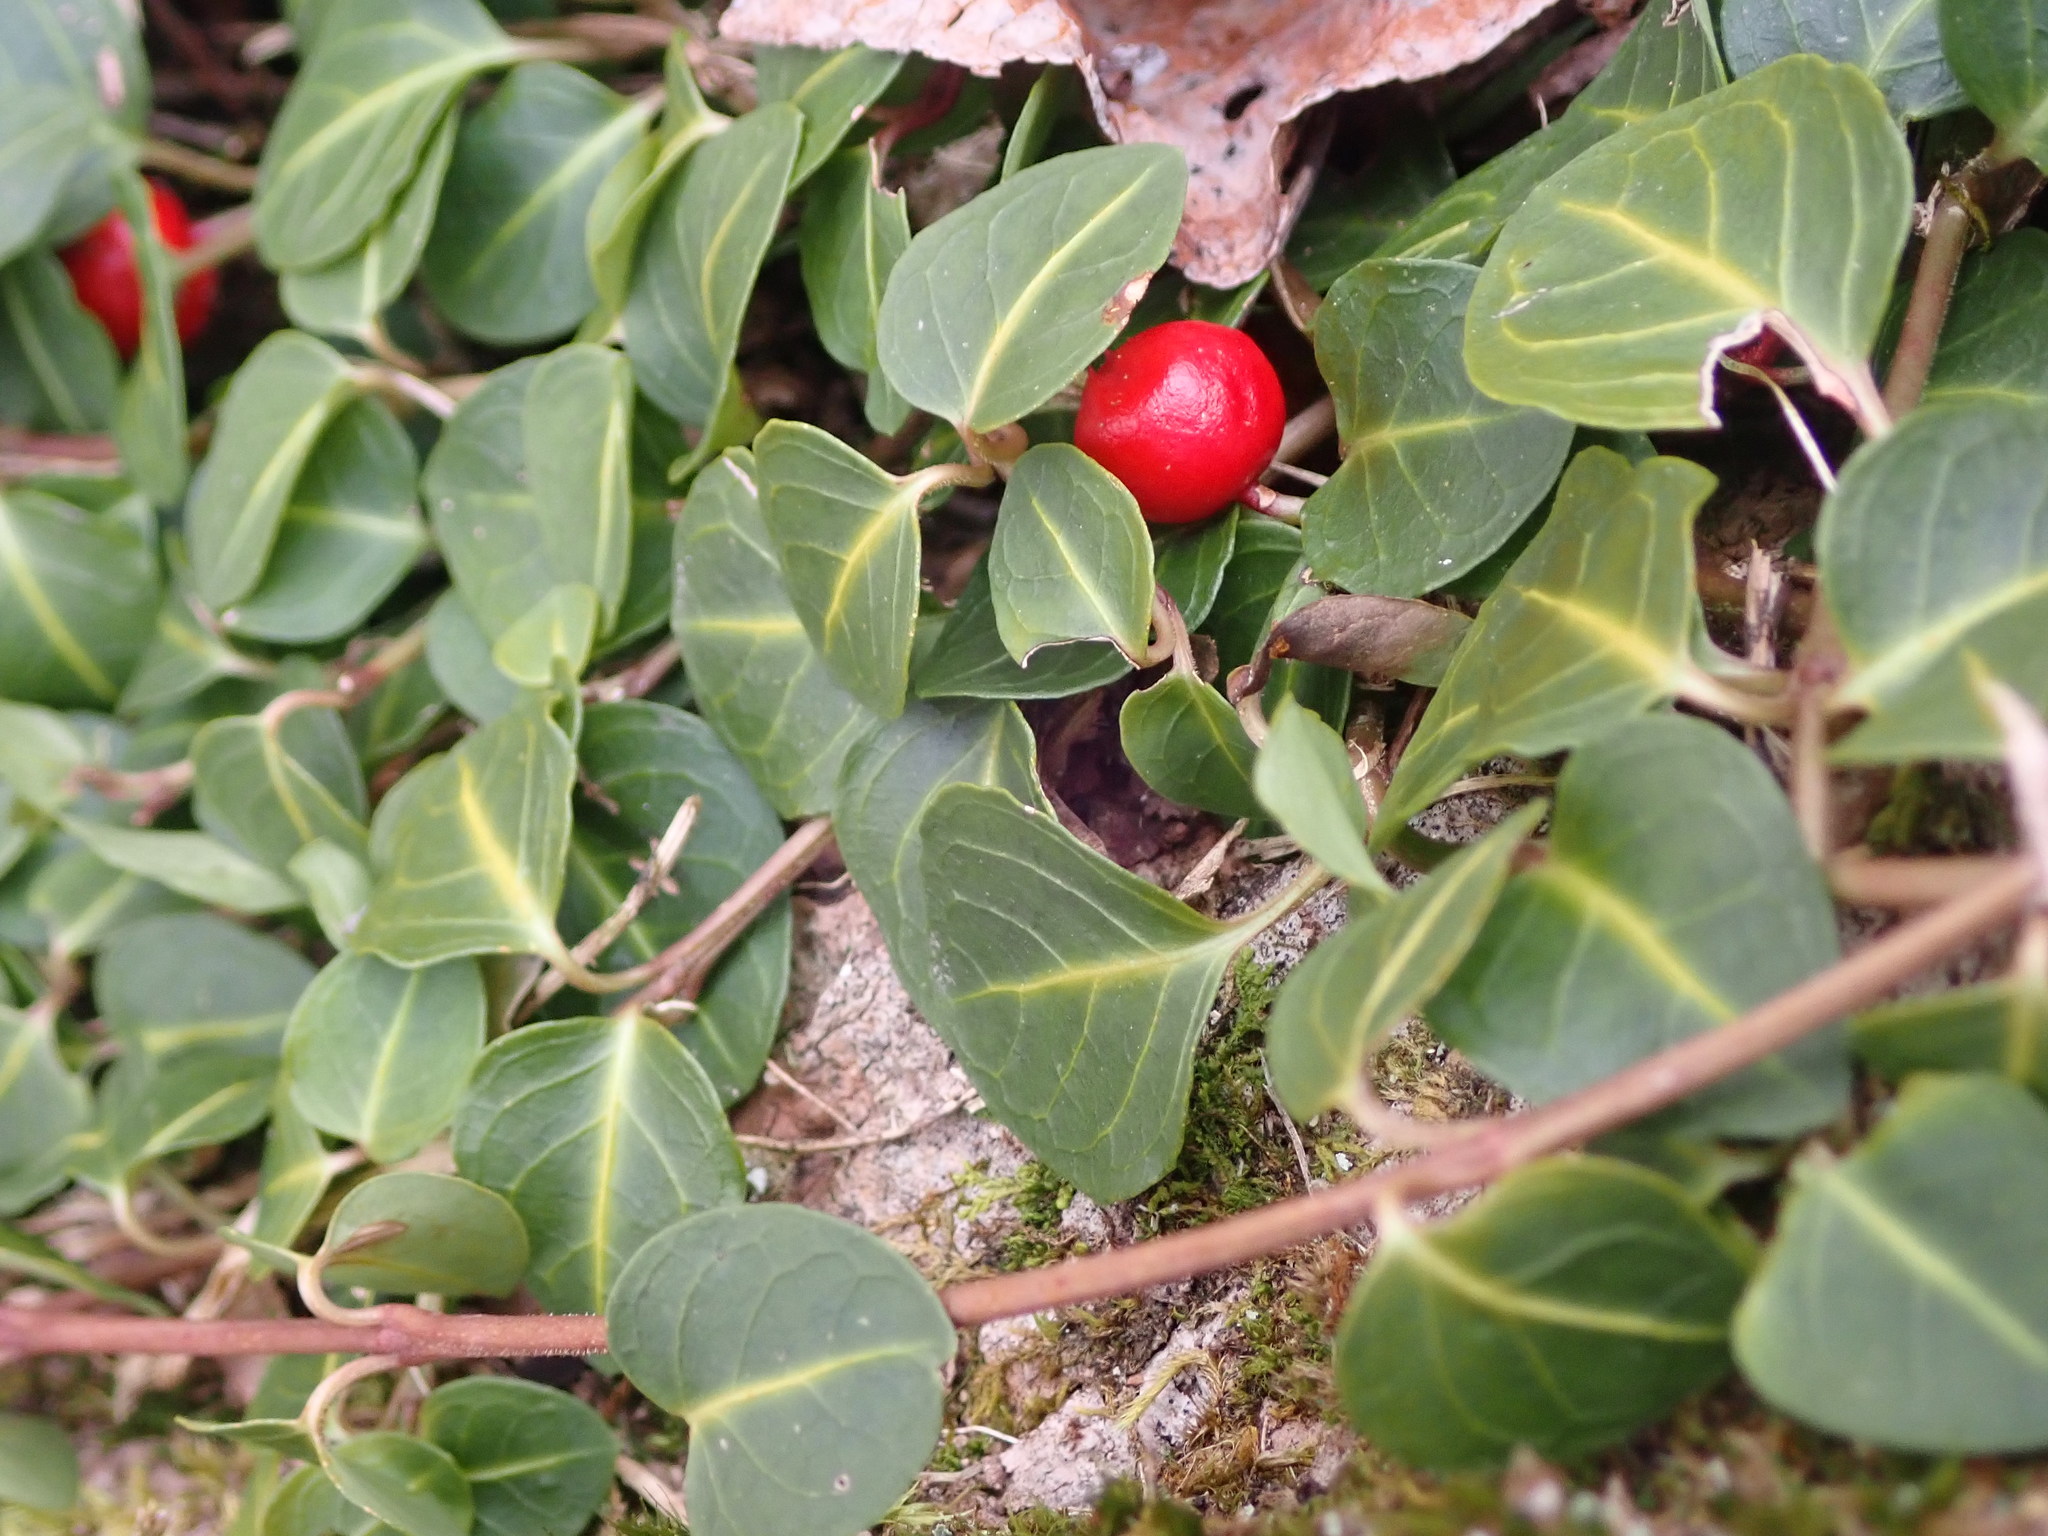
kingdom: Plantae
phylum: Tracheophyta
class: Magnoliopsida
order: Gentianales
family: Rubiaceae
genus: Mitchella
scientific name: Mitchella repens
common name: Partridge-berry
